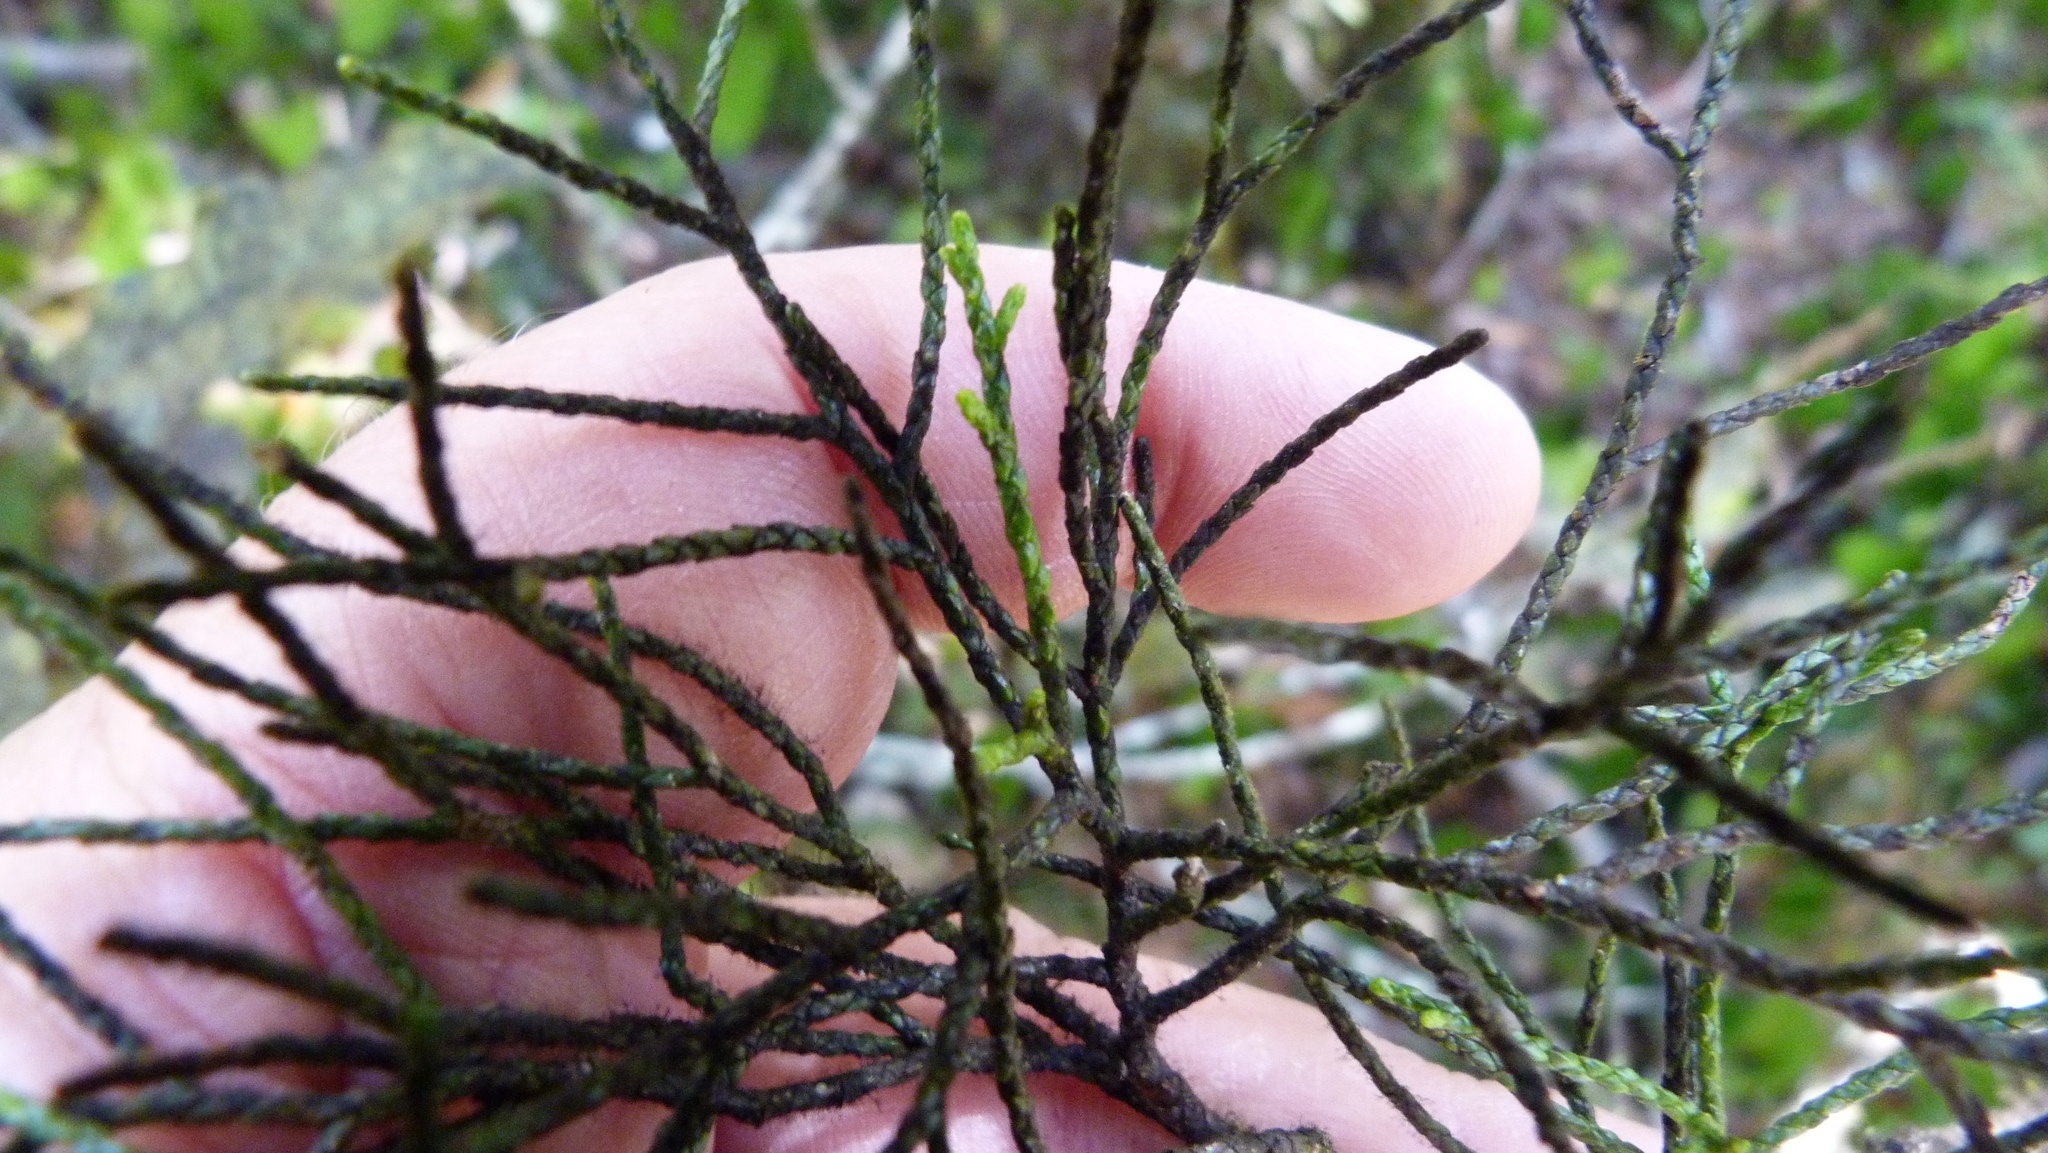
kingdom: Plantae
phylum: Tracheophyta
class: Pinopsida
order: Pinales
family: Podocarpaceae
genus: Halocarpus
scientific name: Halocarpus biformis
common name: Alpine tarwood
